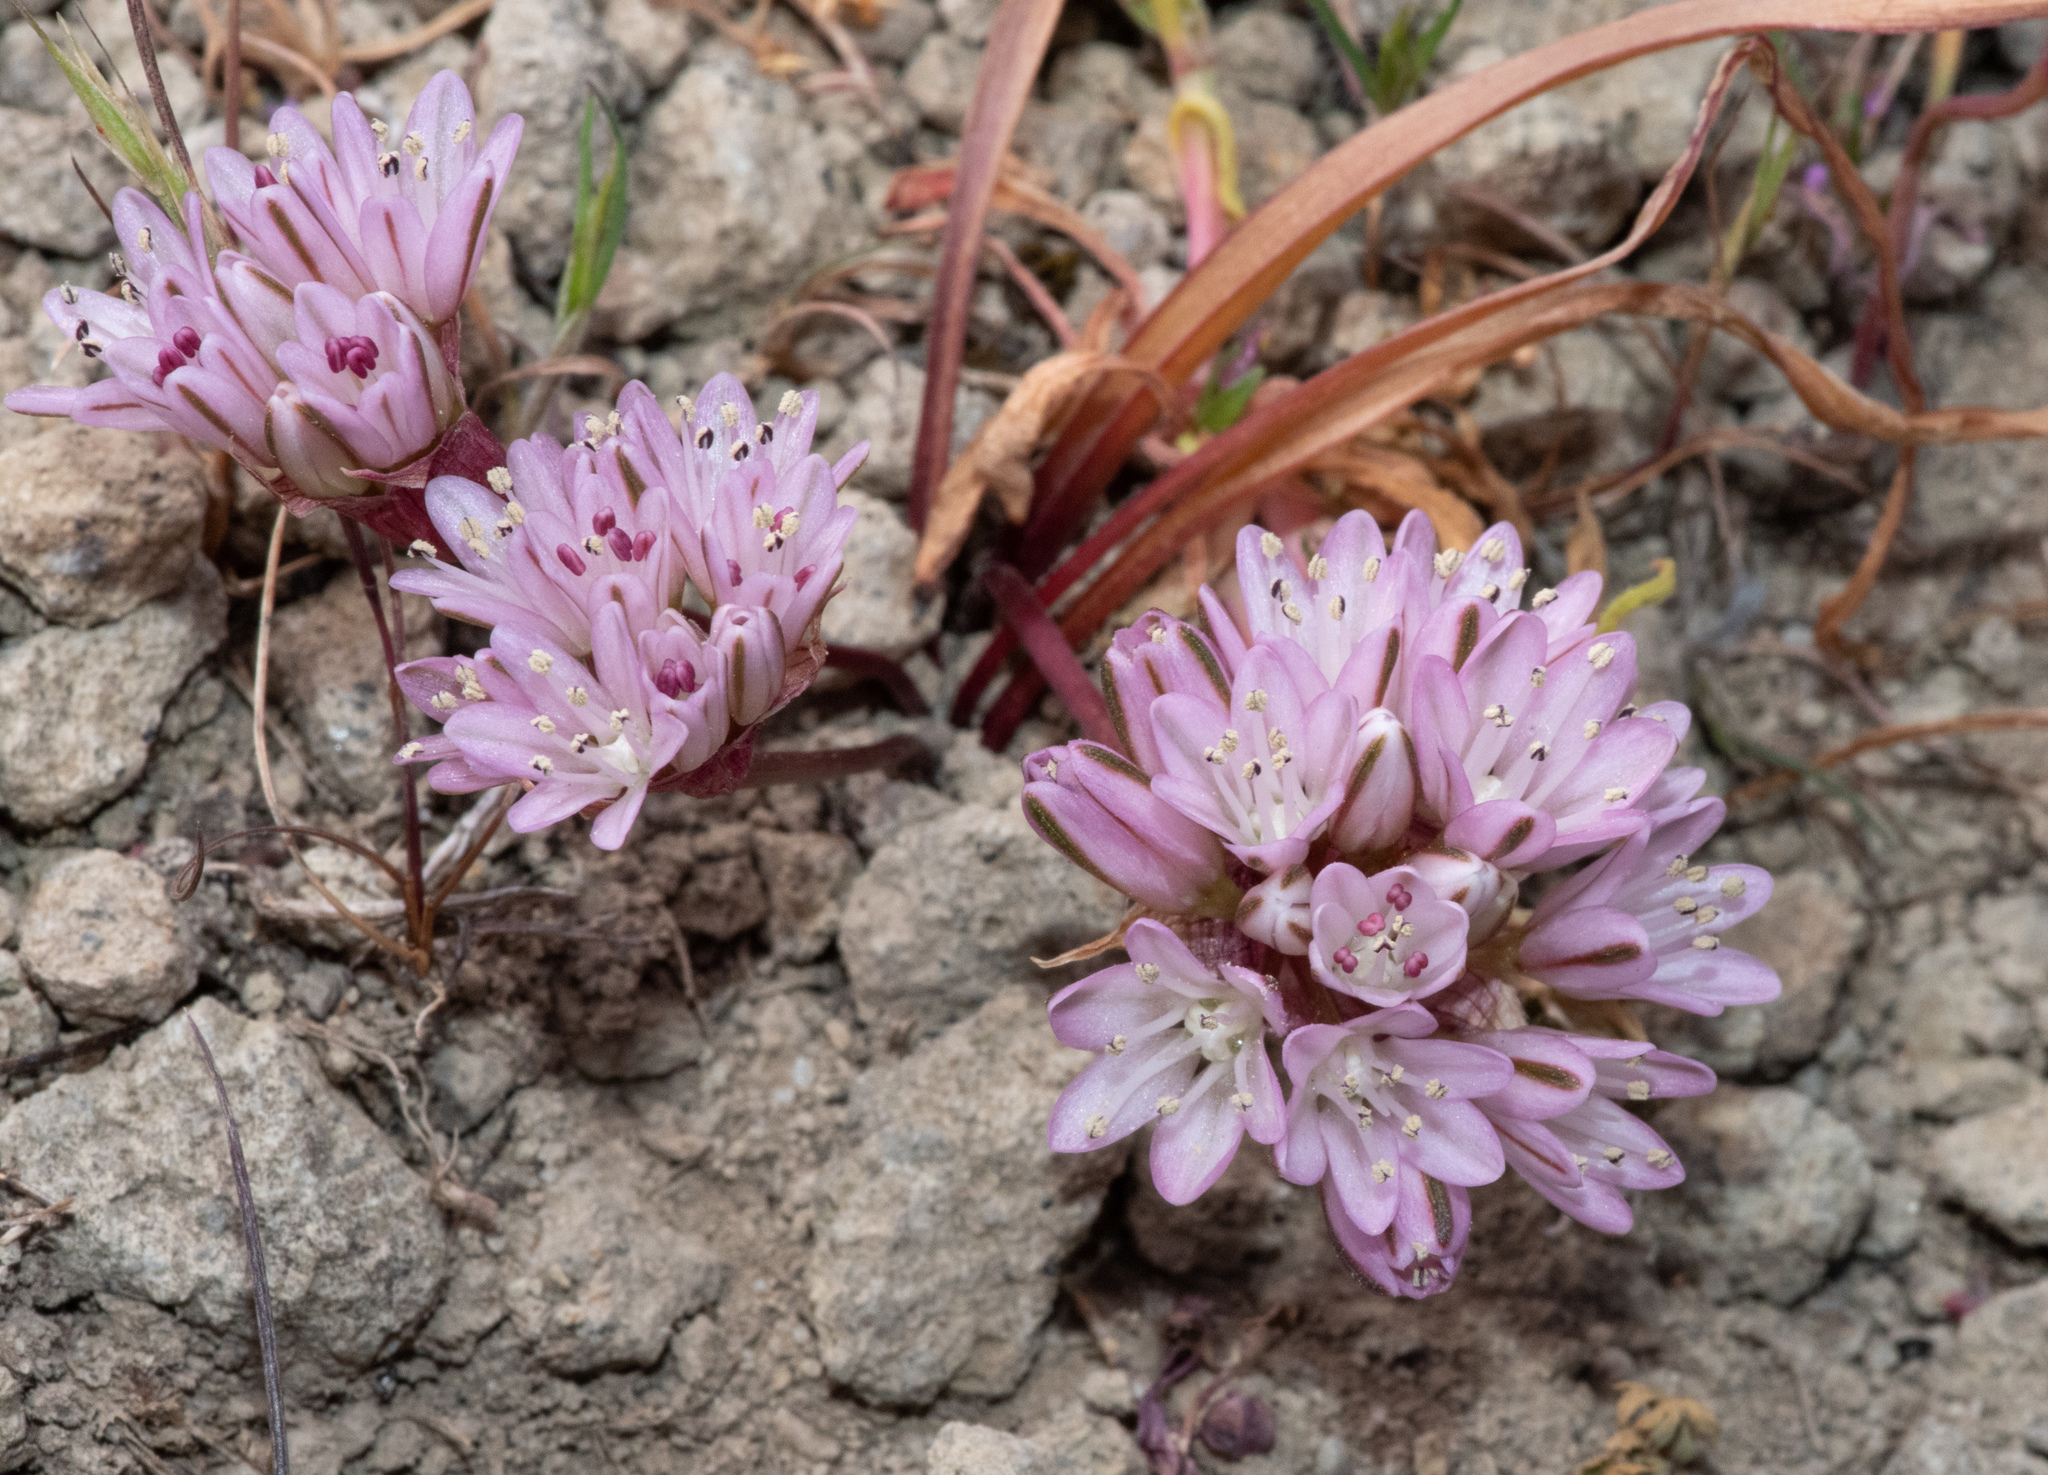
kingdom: Plantae
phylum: Tracheophyta
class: Liliopsida
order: Asparagales
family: Amaryllidaceae
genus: Allium
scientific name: Allium cratericola
